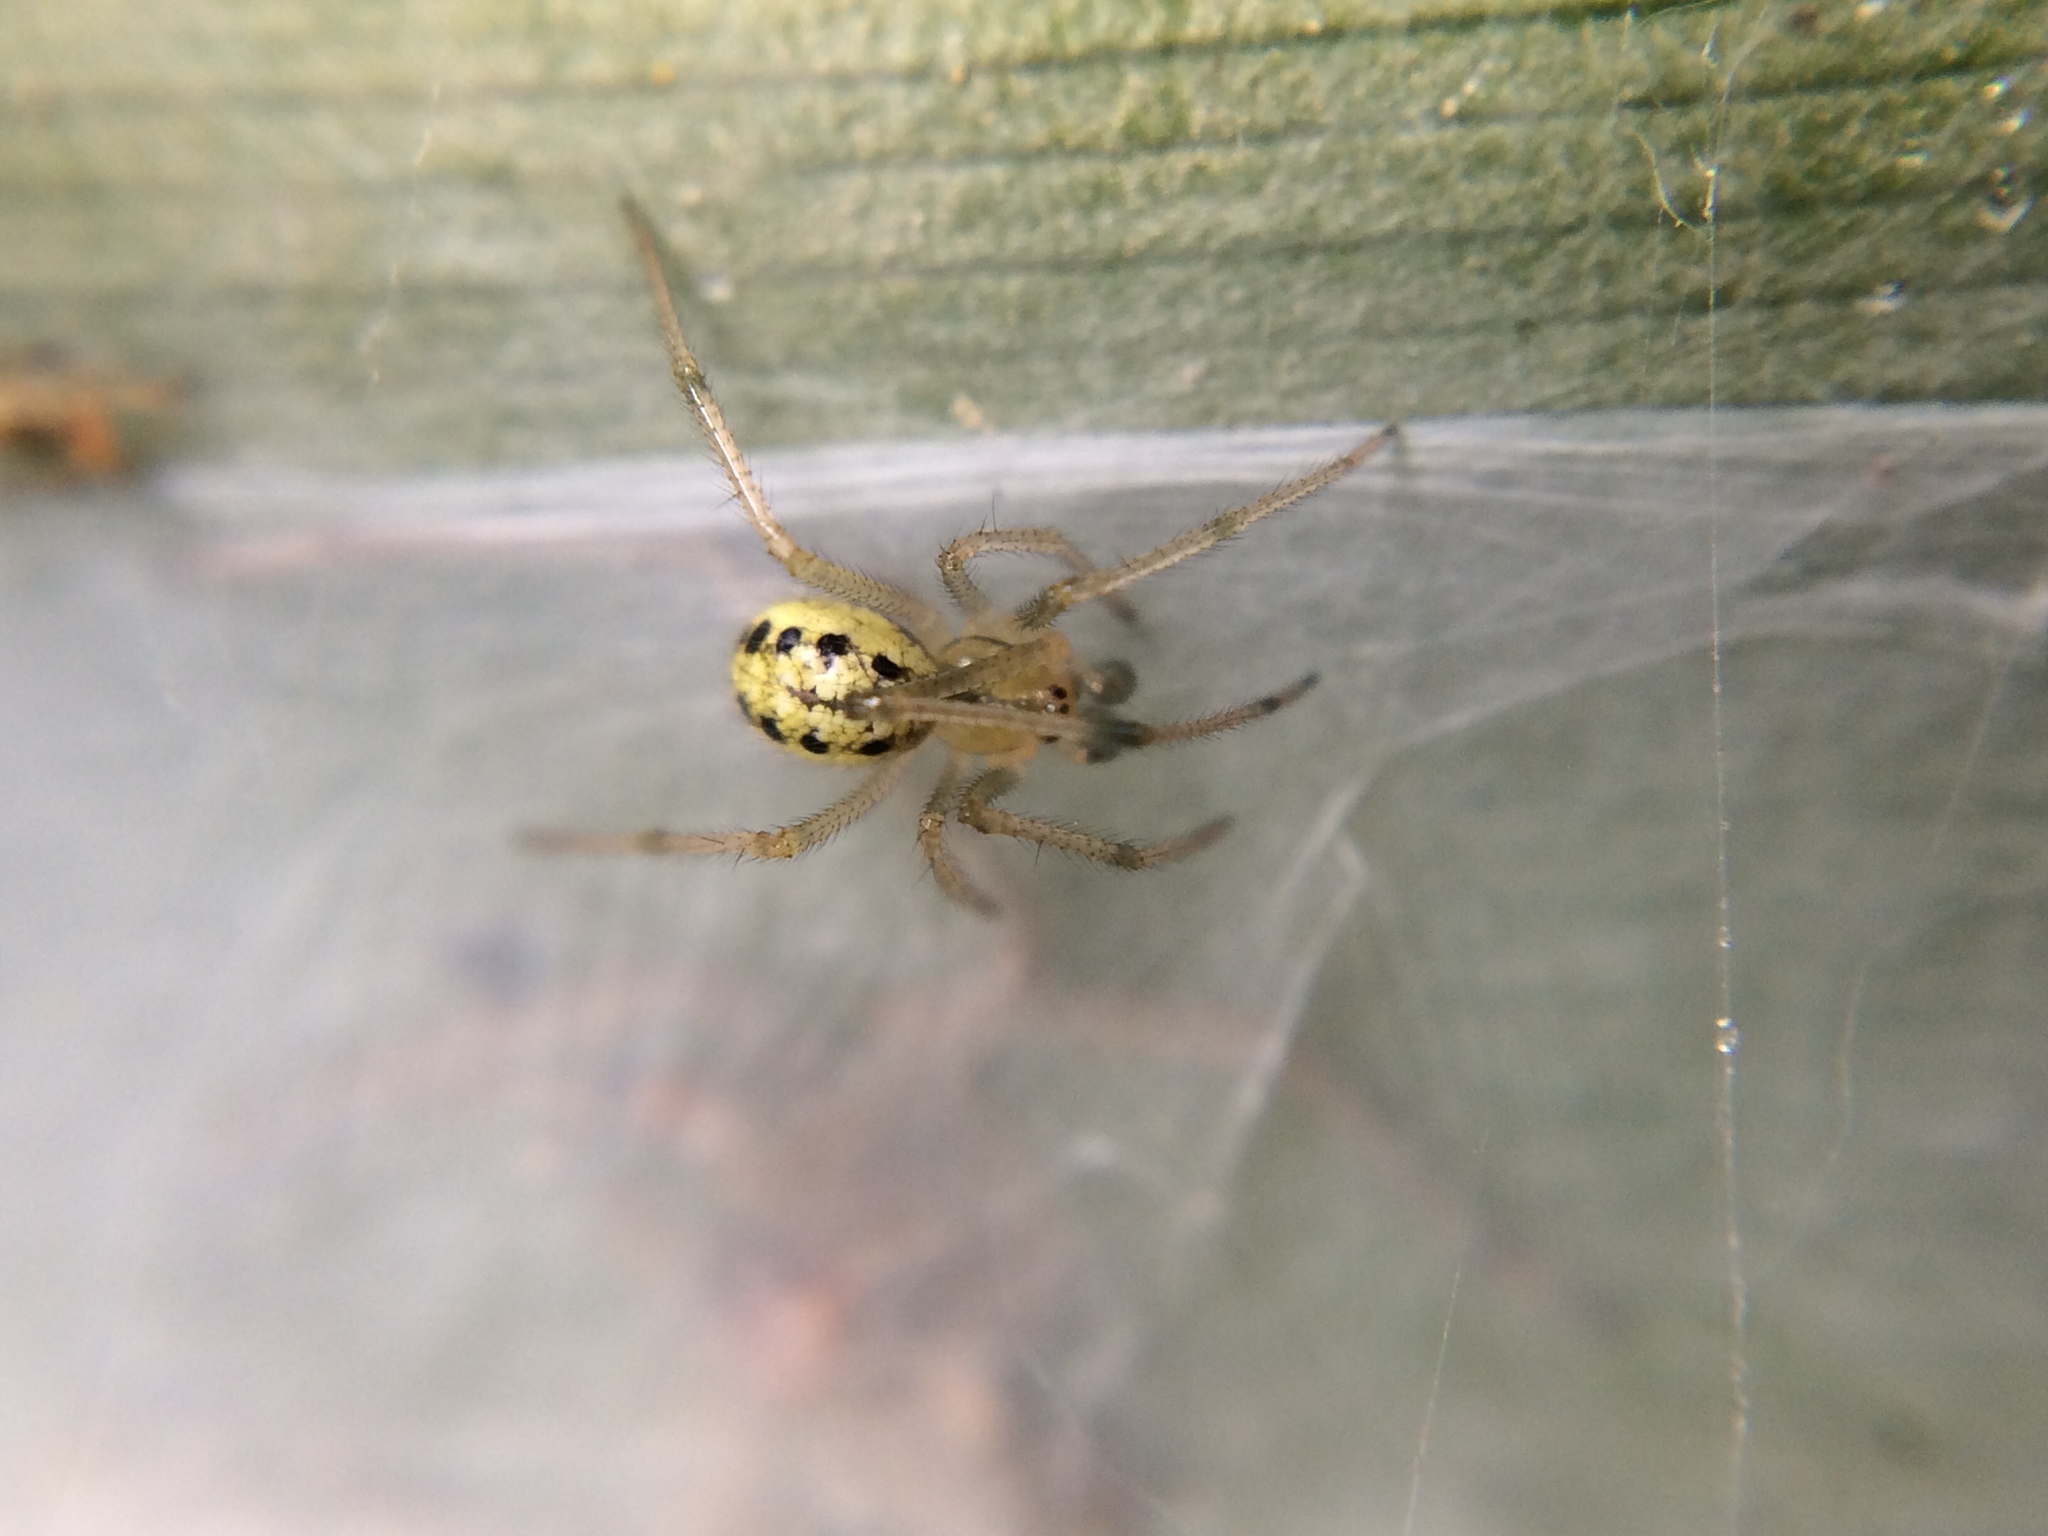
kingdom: Animalia
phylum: Arthropoda
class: Arachnida
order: Araneae
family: Theridiidae
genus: Enoplognatha
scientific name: Enoplognatha ovata
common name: Common candy-striped spider
